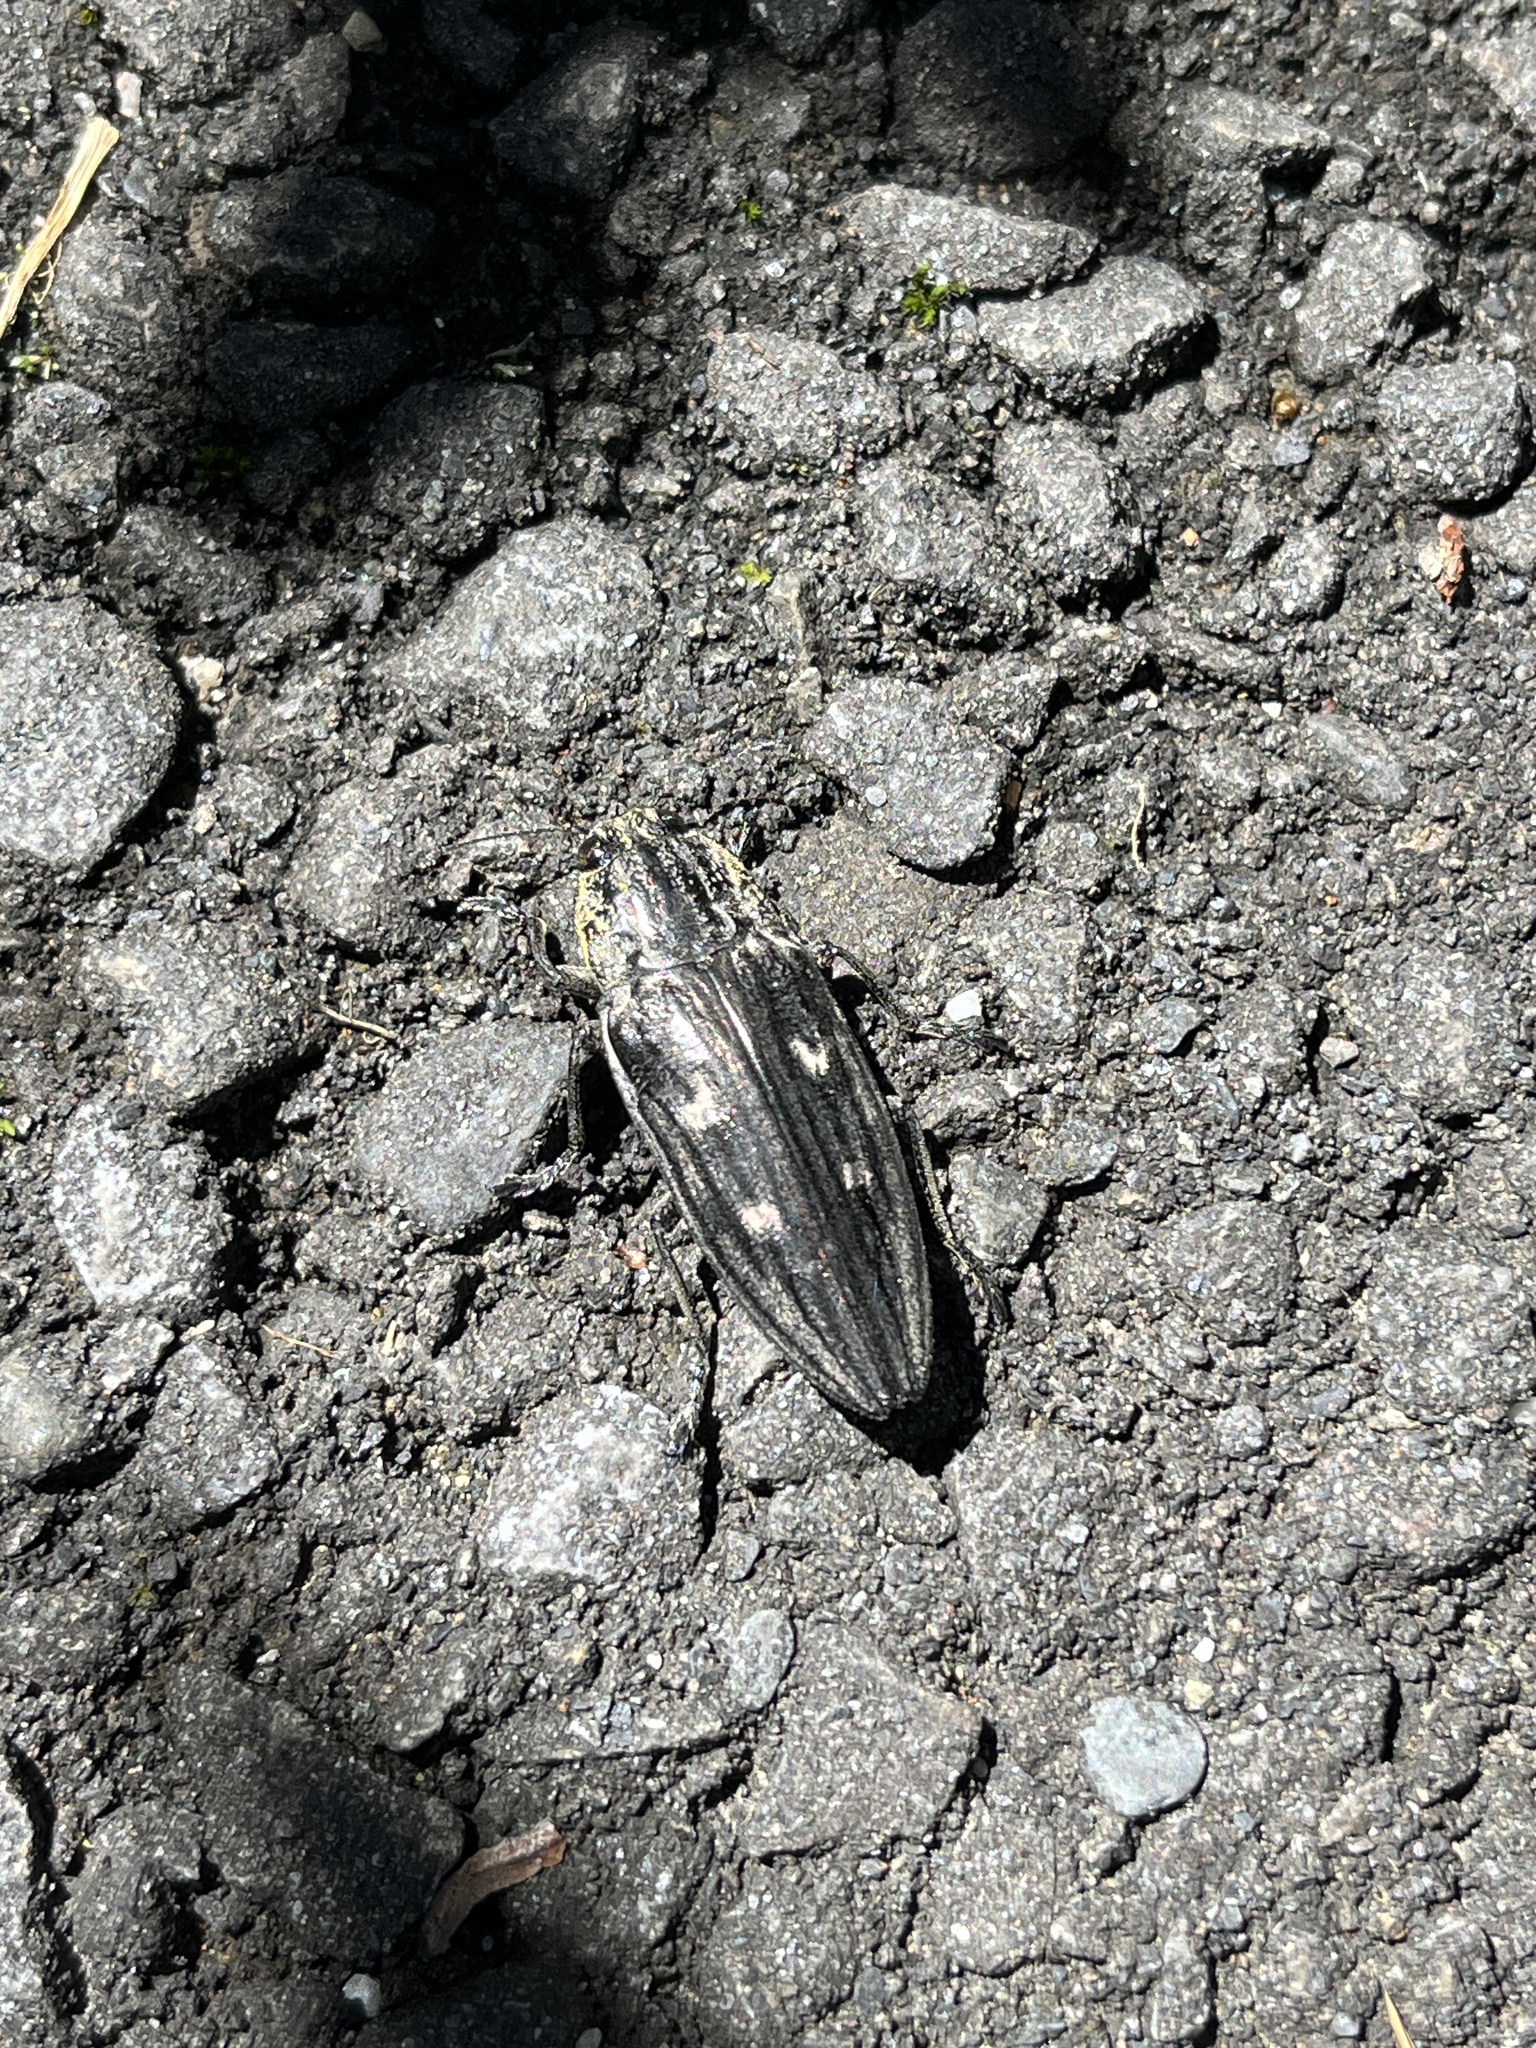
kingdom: Animalia
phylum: Arthropoda
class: Insecta
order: Coleoptera
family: Buprestidae
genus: Chalcophora
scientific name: Chalcophora yunnana
